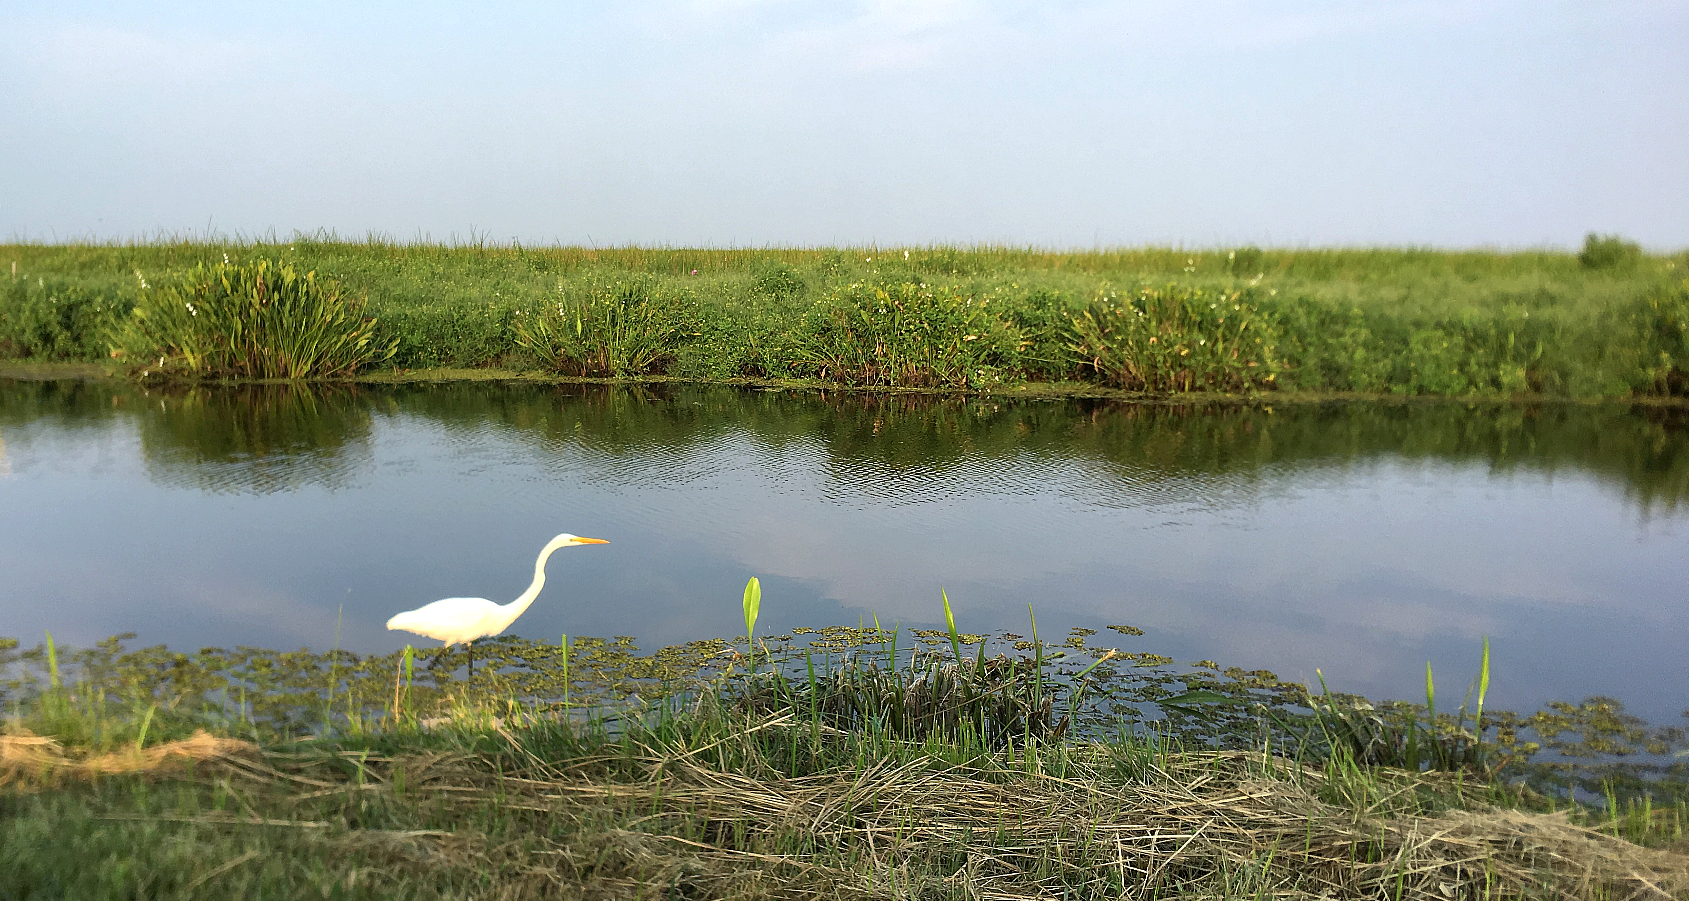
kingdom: Animalia
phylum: Chordata
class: Aves
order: Pelecaniformes
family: Ardeidae
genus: Ardea
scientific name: Ardea alba
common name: Great egret
